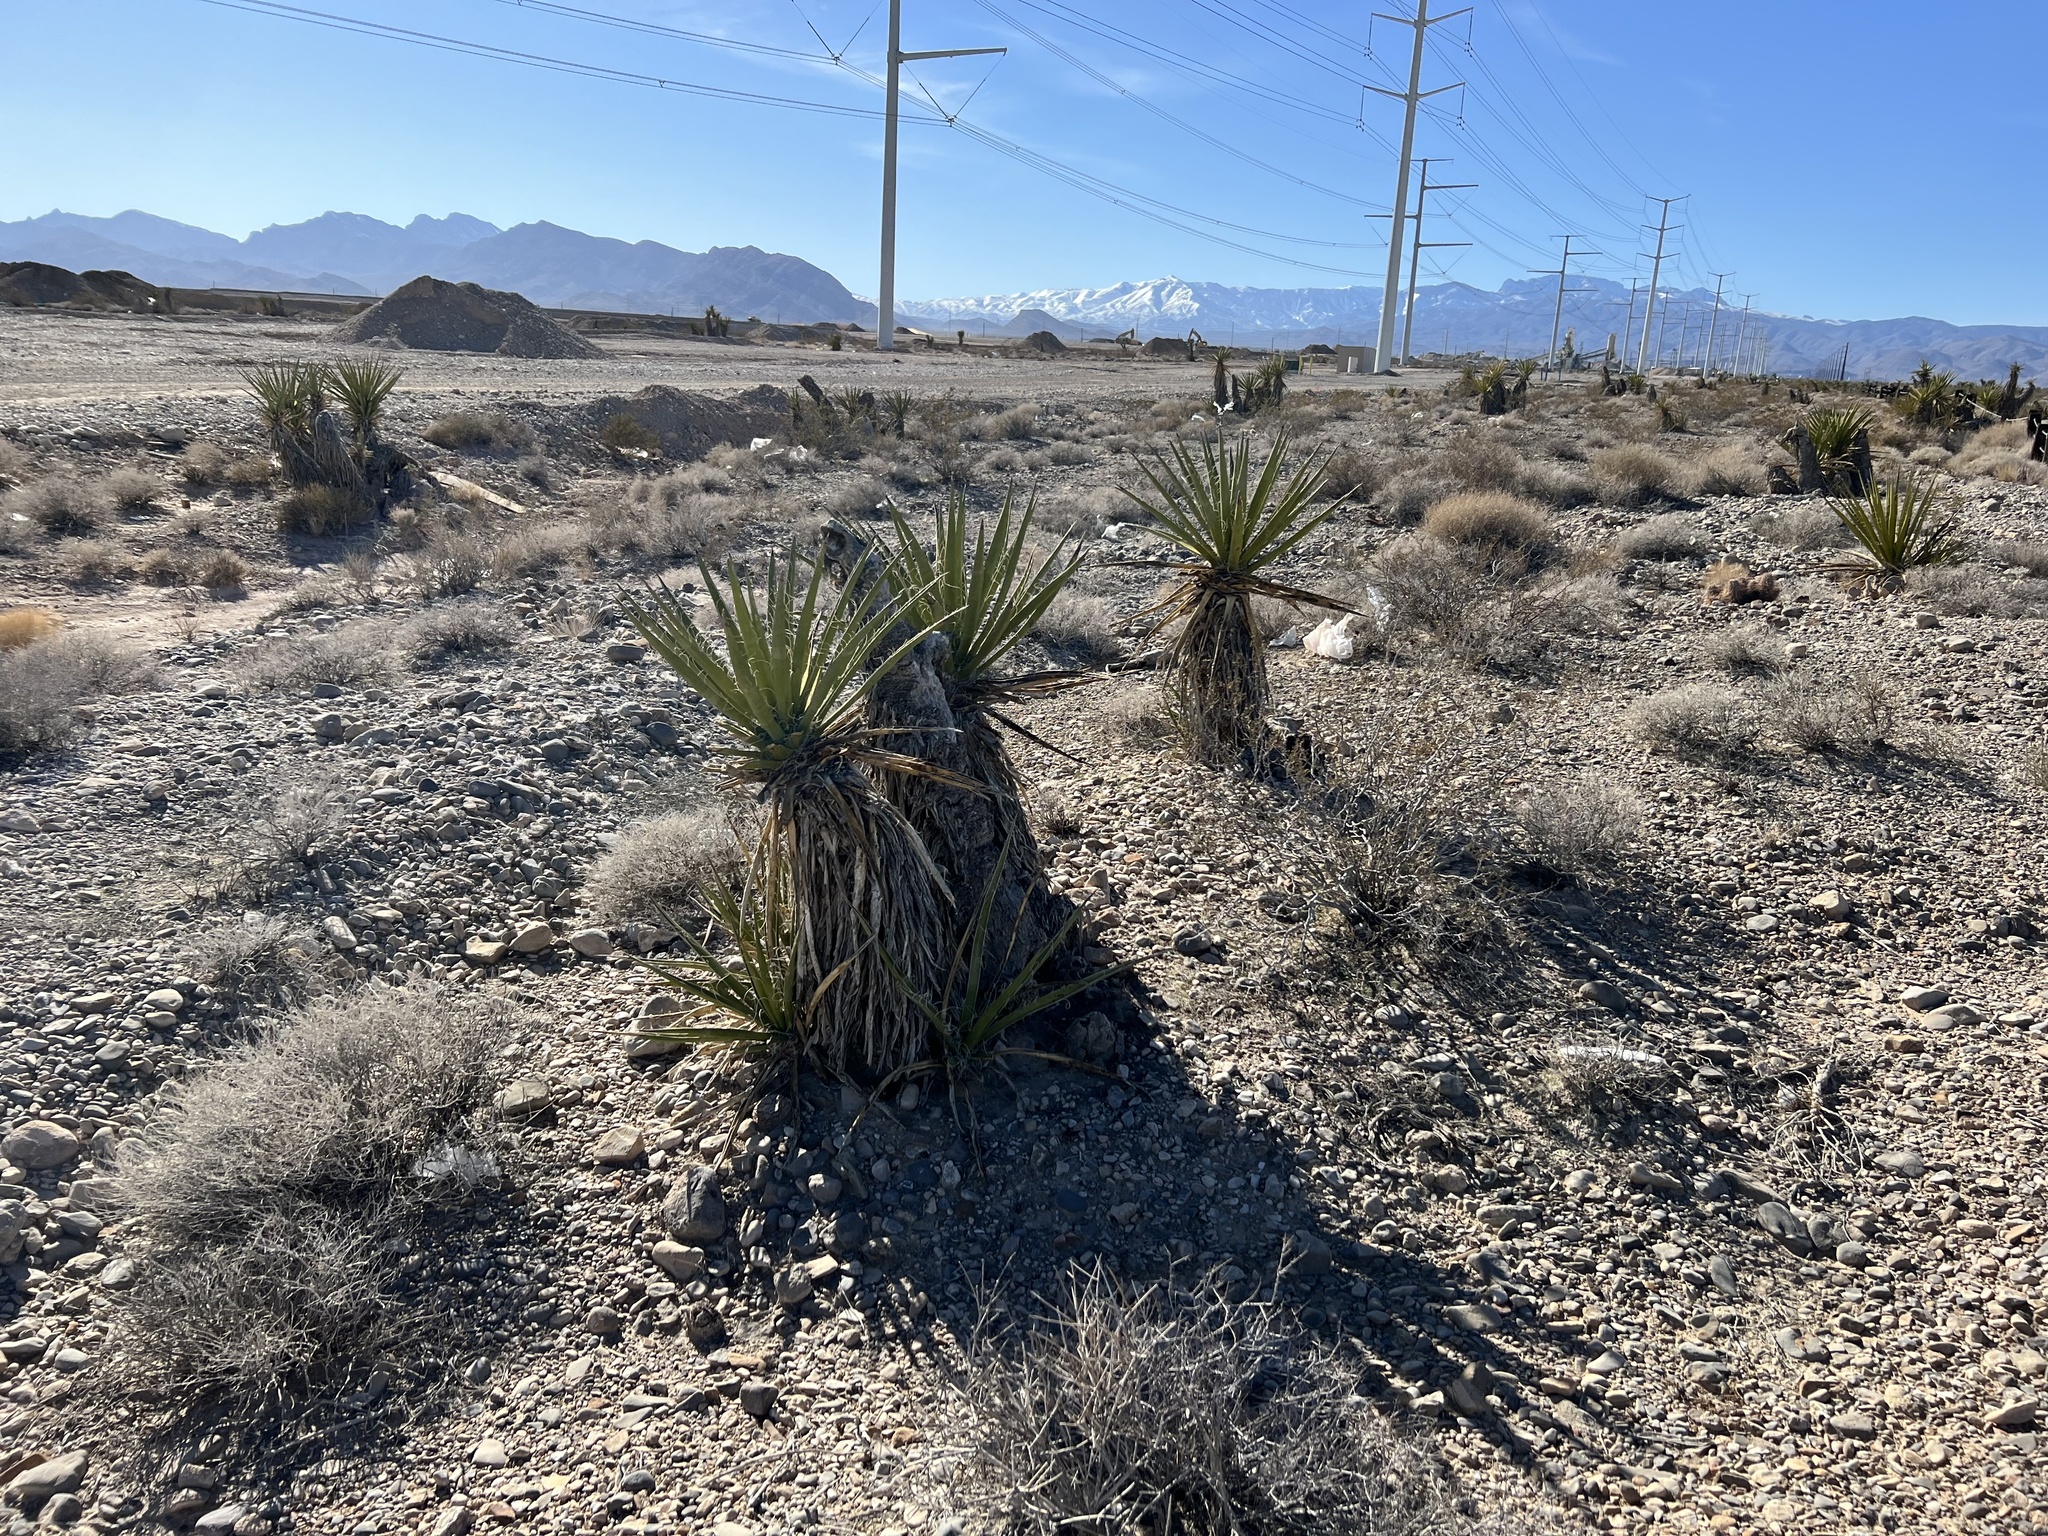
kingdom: Plantae
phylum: Tracheophyta
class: Liliopsida
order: Asparagales
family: Asparagaceae
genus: Yucca
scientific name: Yucca schidigera
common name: Mojave yucca
